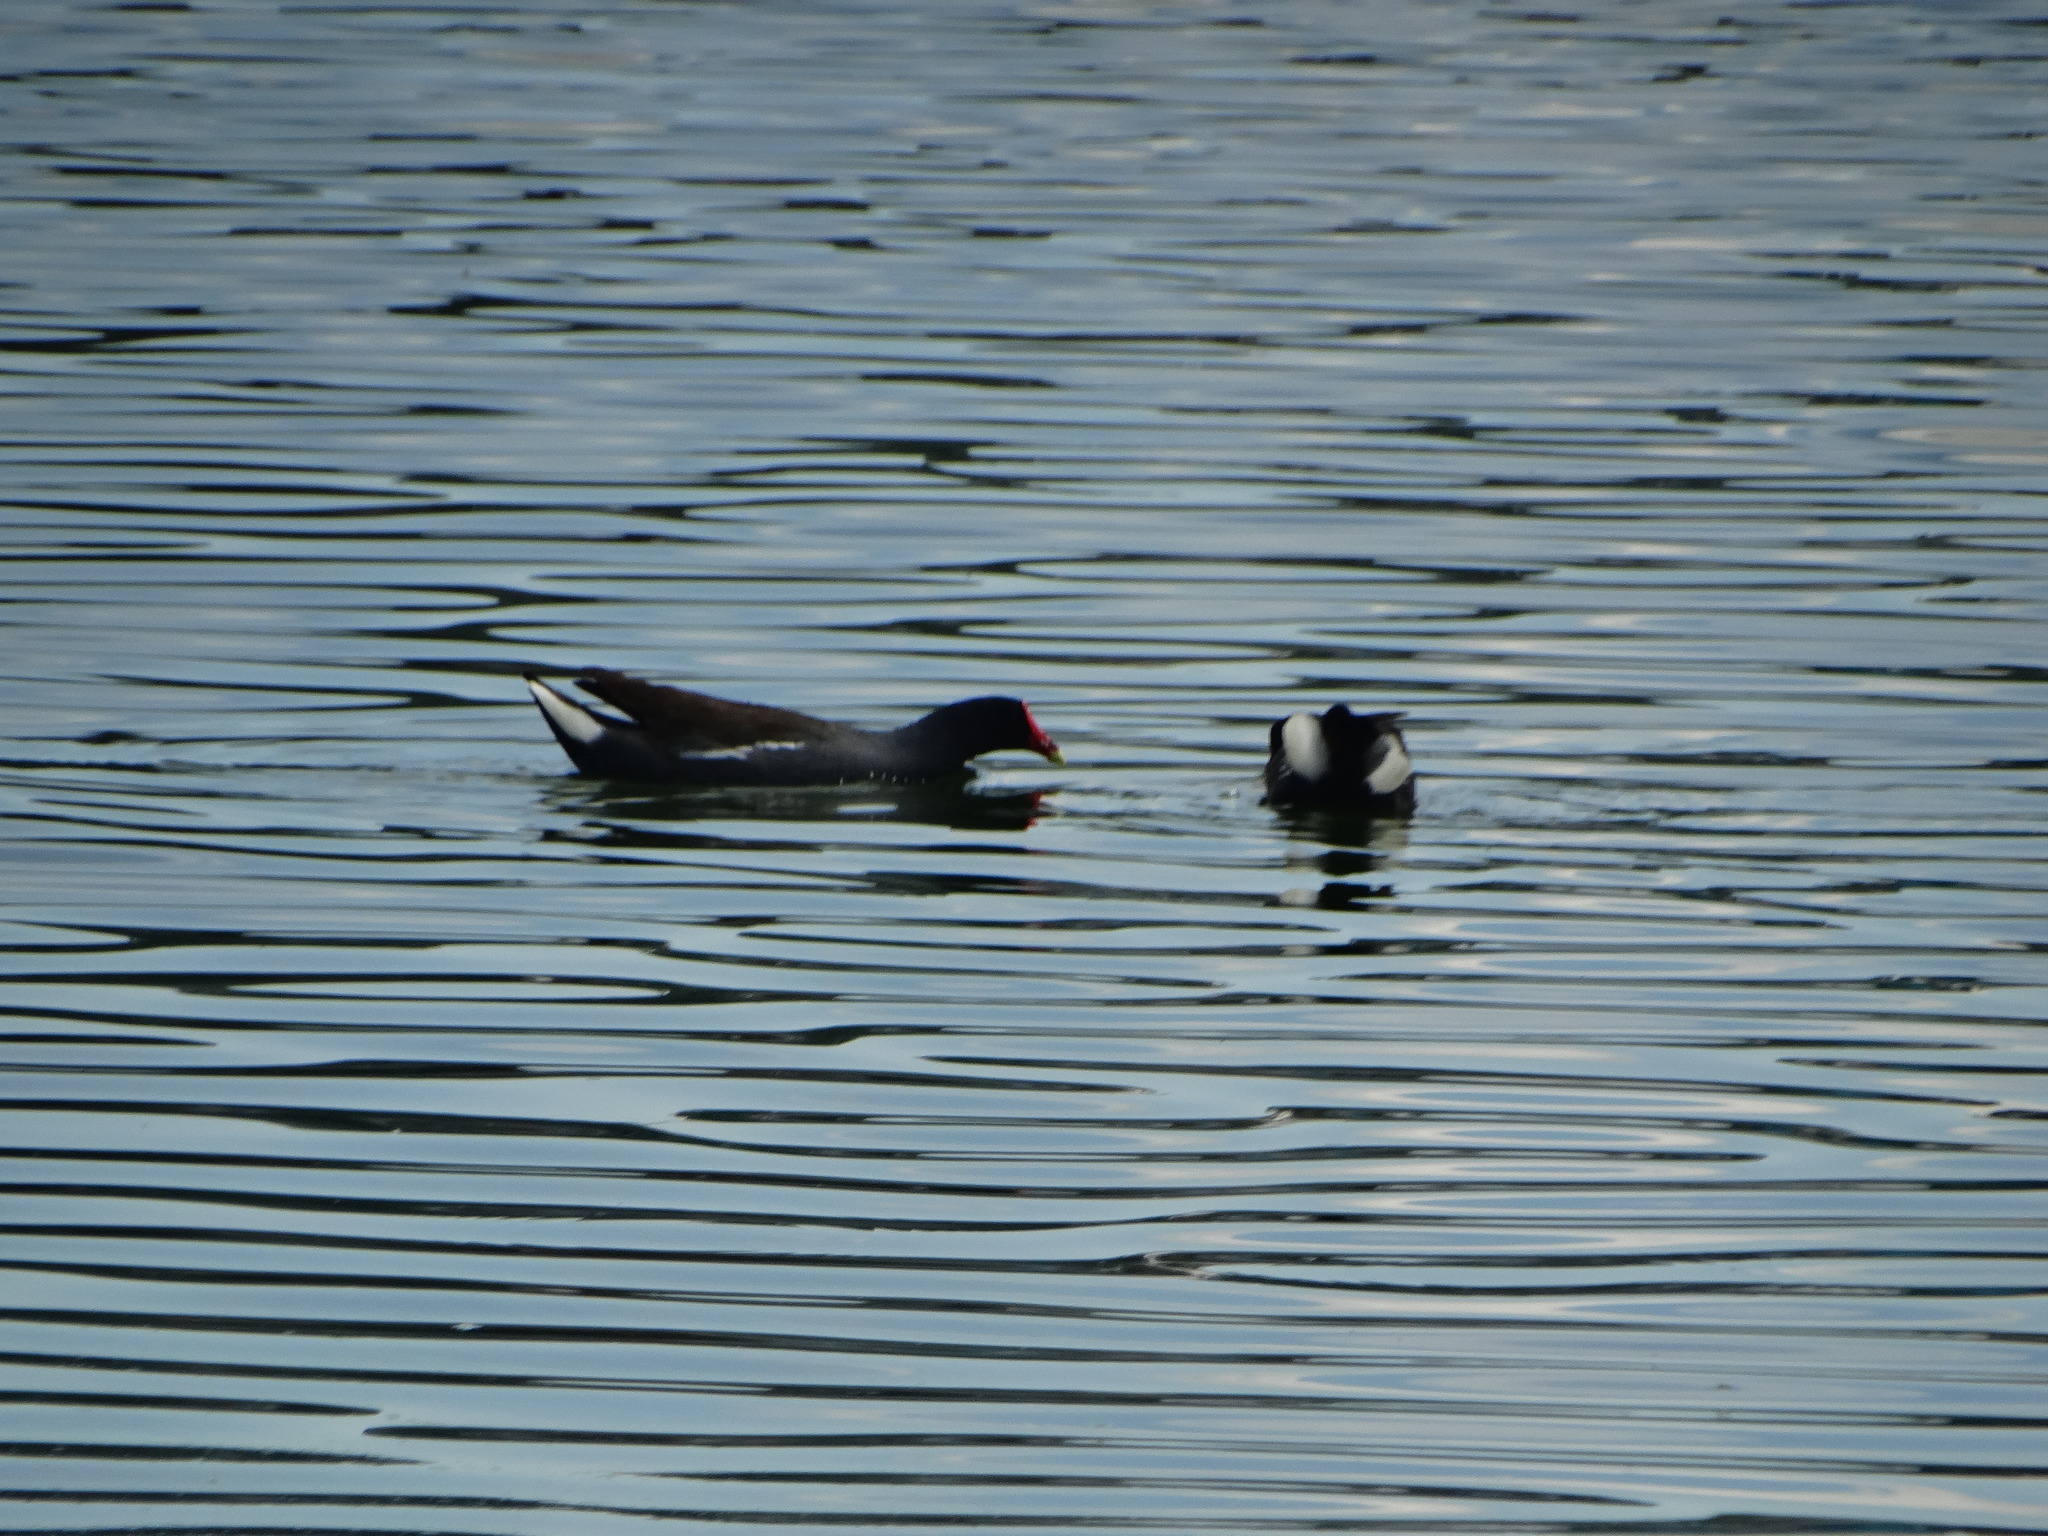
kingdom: Animalia
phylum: Chordata
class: Aves
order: Gruiformes
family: Rallidae
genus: Gallinula
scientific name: Gallinula chloropus
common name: Common moorhen
